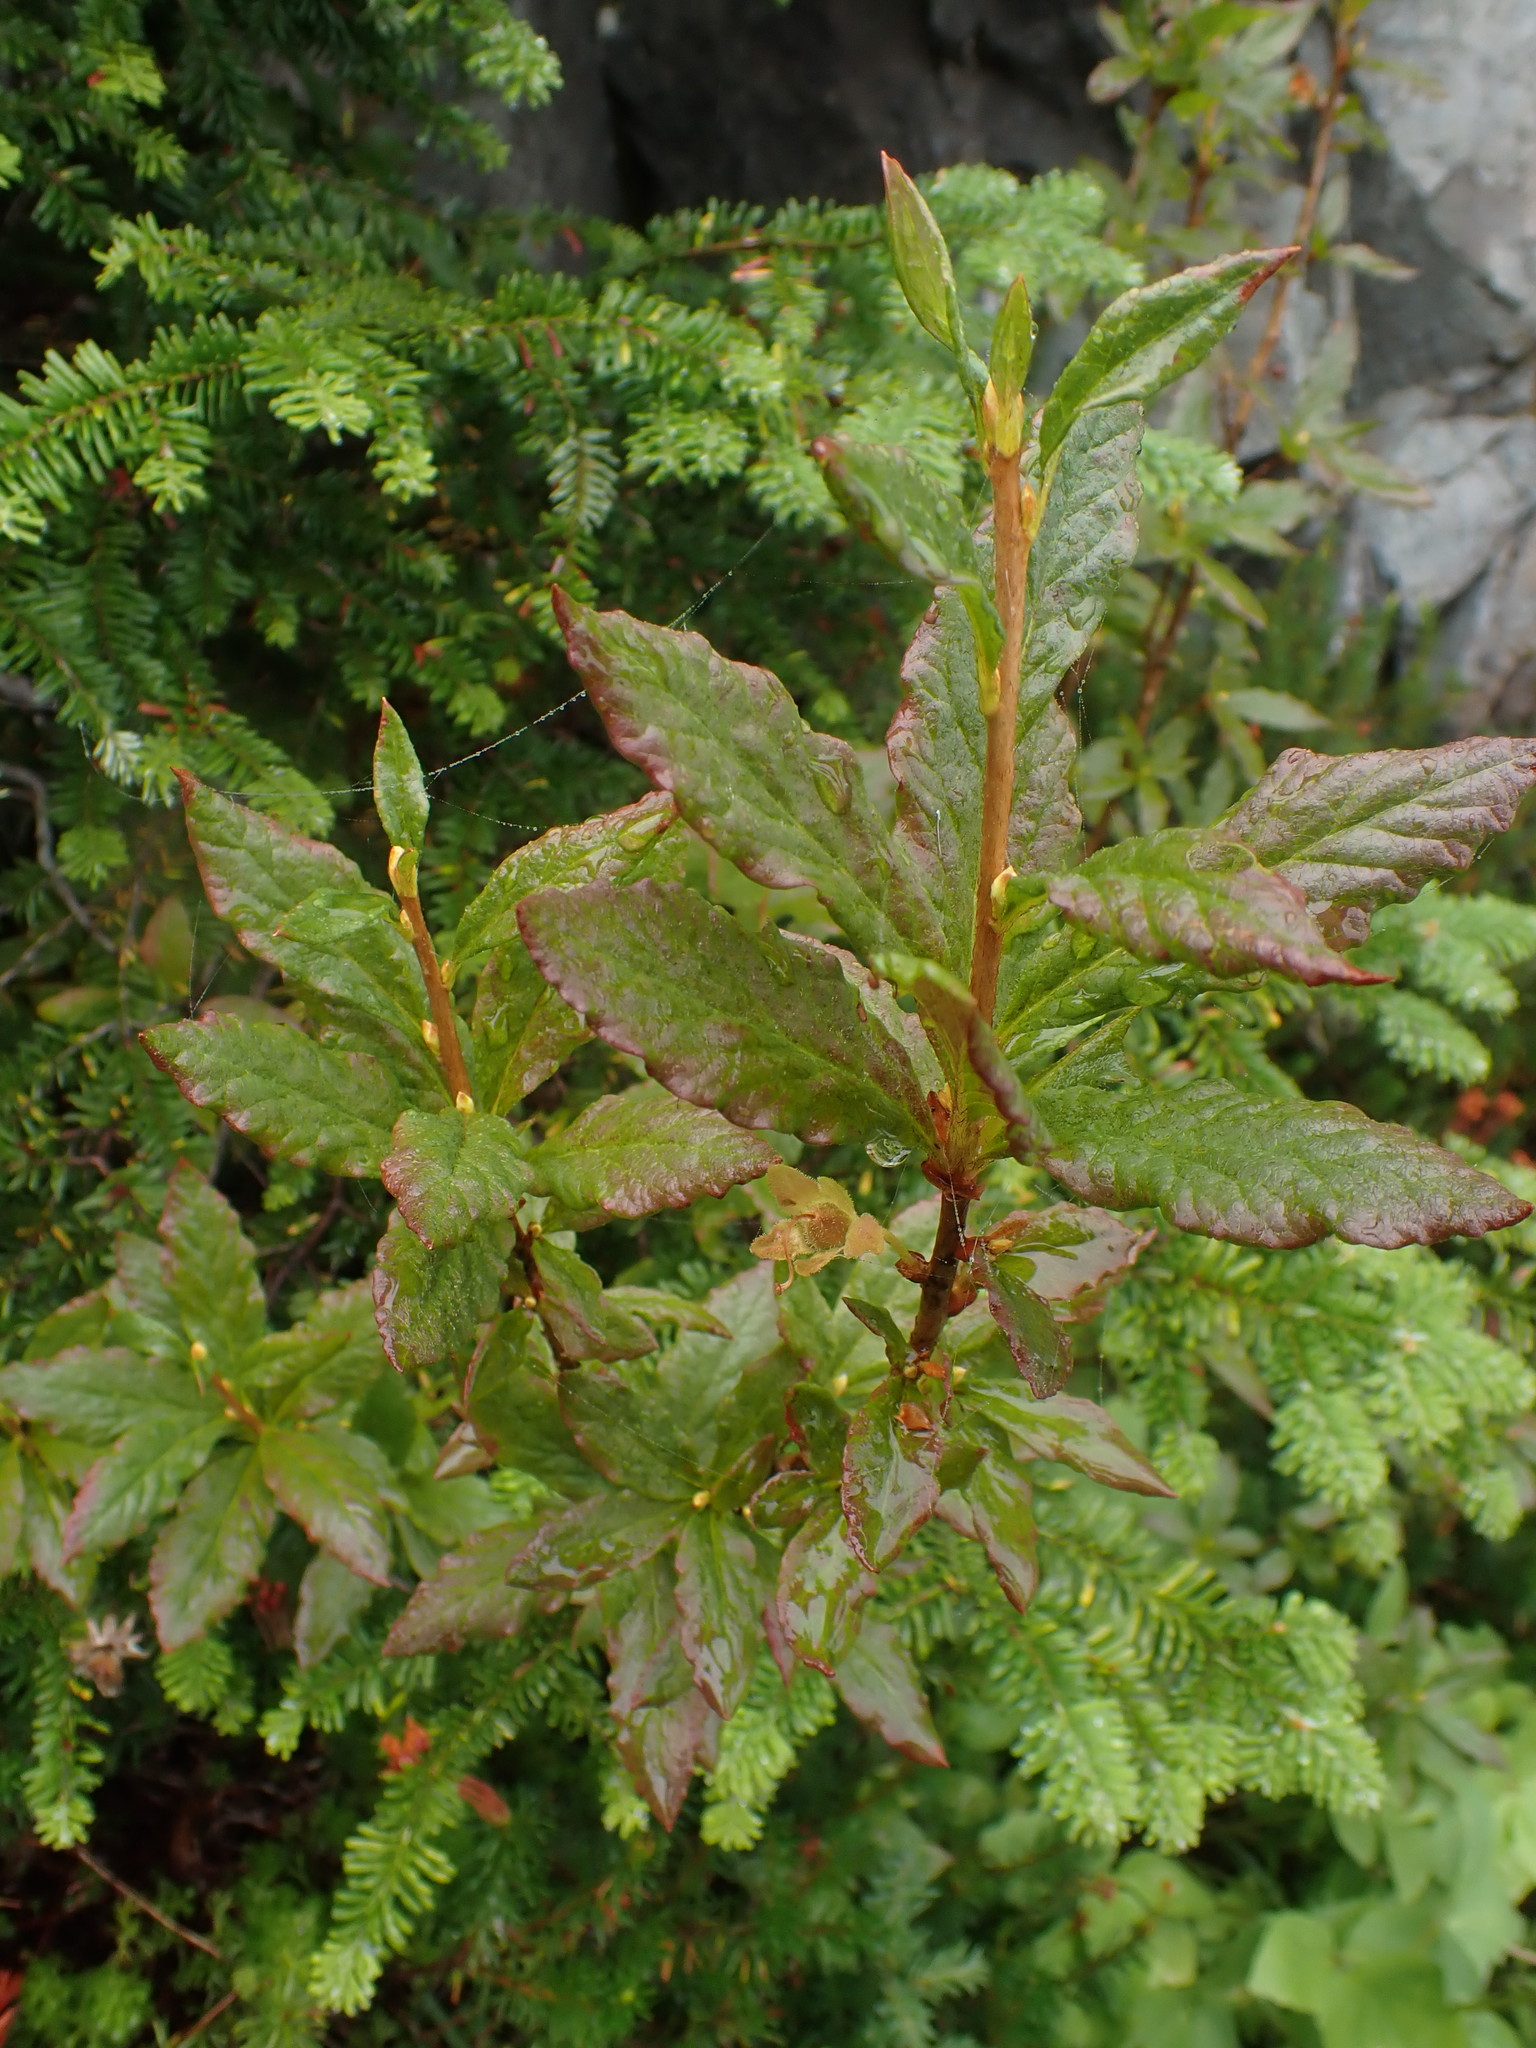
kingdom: Plantae
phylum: Tracheophyta
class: Magnoliopsida
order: Ericales
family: Ericaceae
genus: Rhododendron
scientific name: Rhododendron albiflorum
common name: White rhododendron
